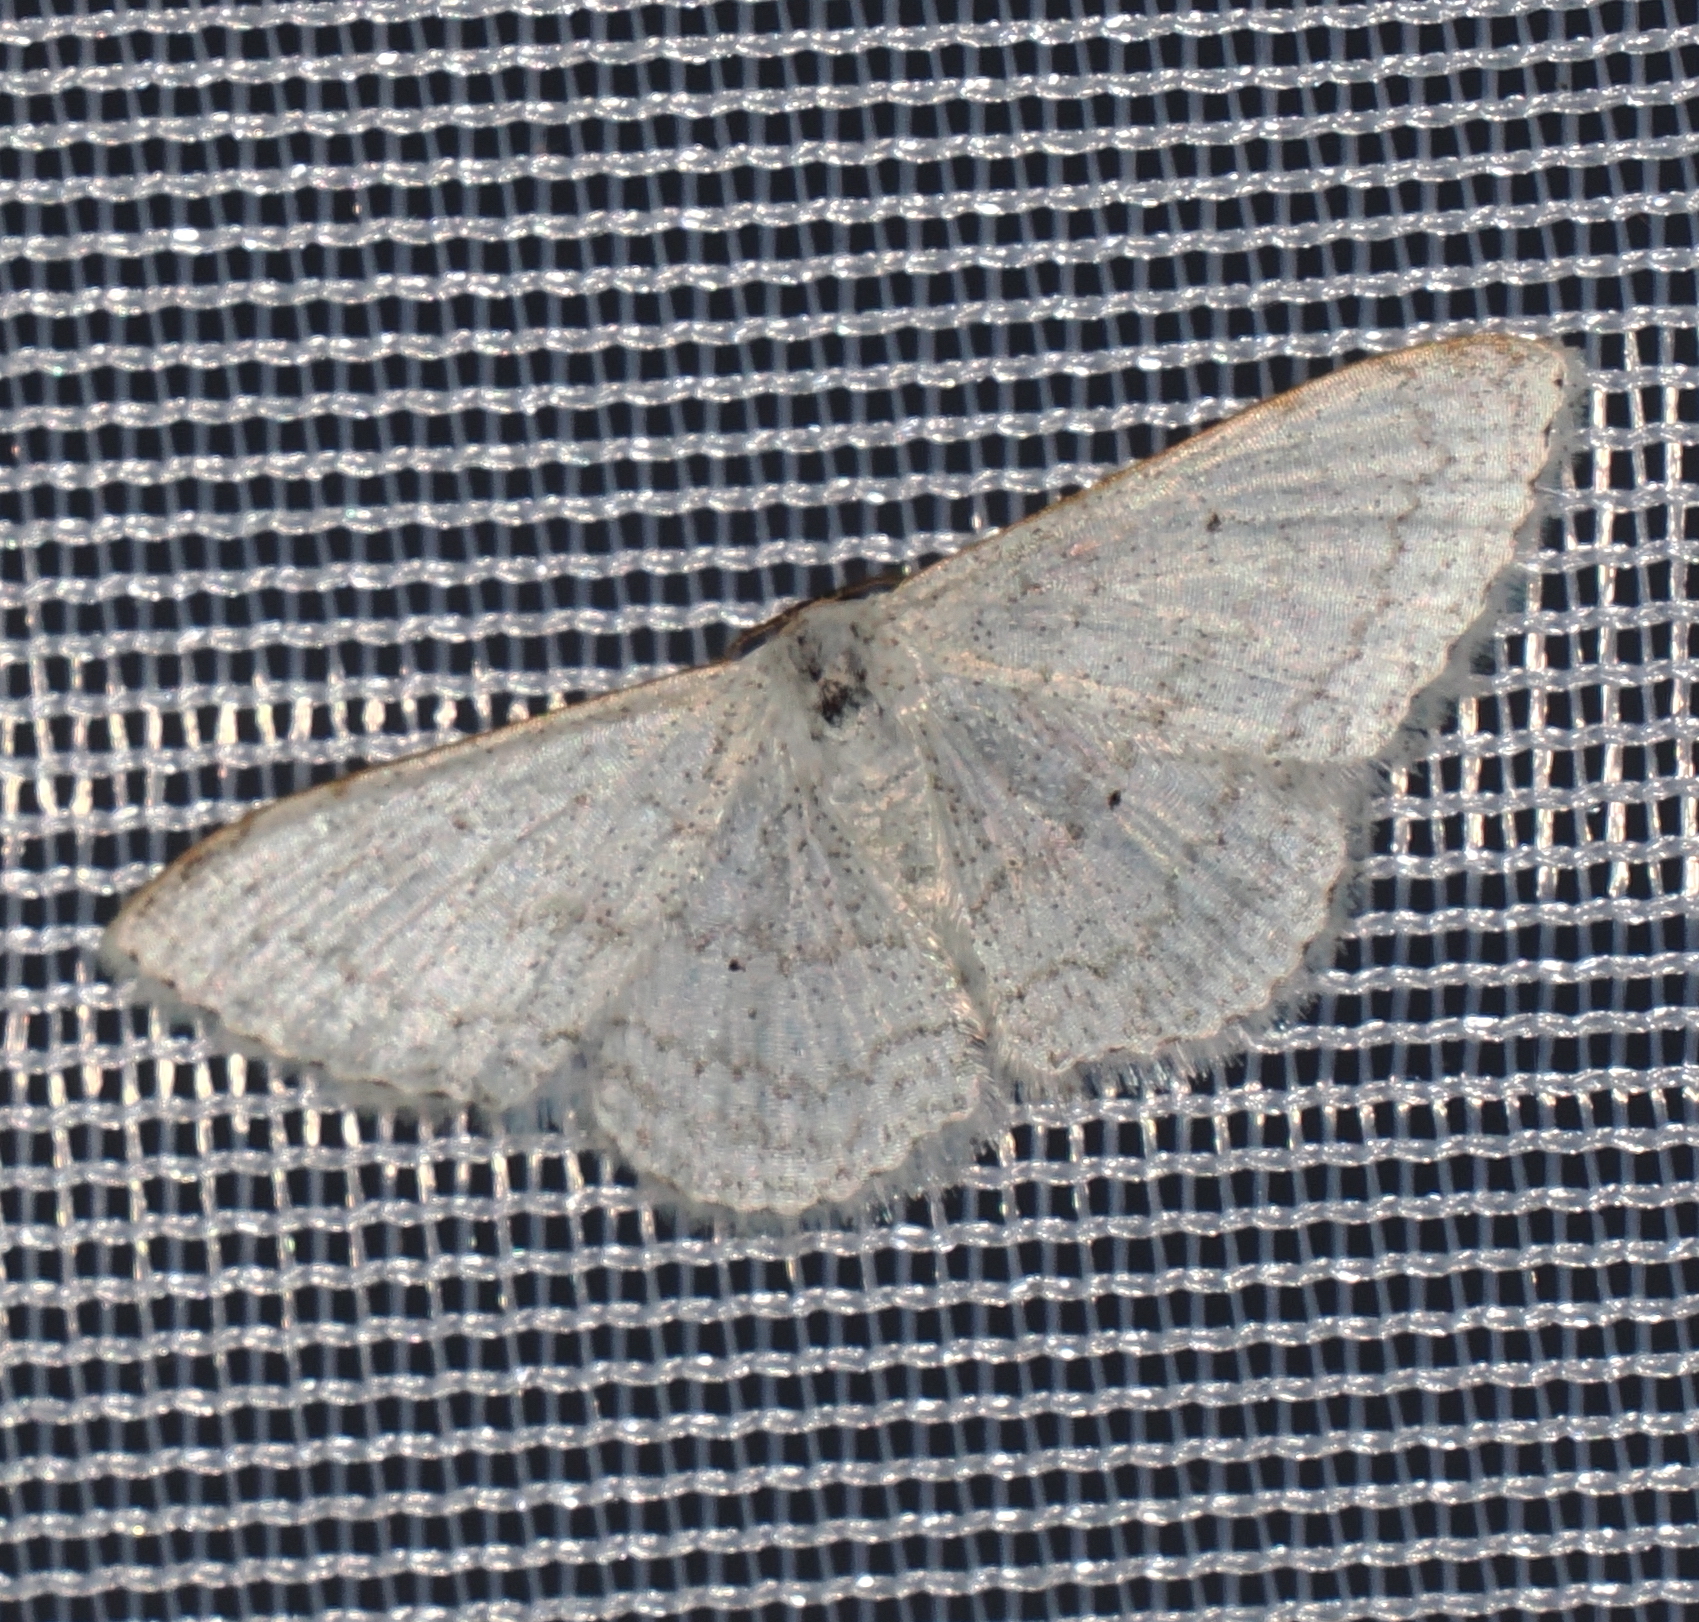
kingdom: Animalia
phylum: Arthropoda
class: Insecta
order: Lepidoptera
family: Geometridae
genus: Scopula
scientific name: Scopula umbilicata
